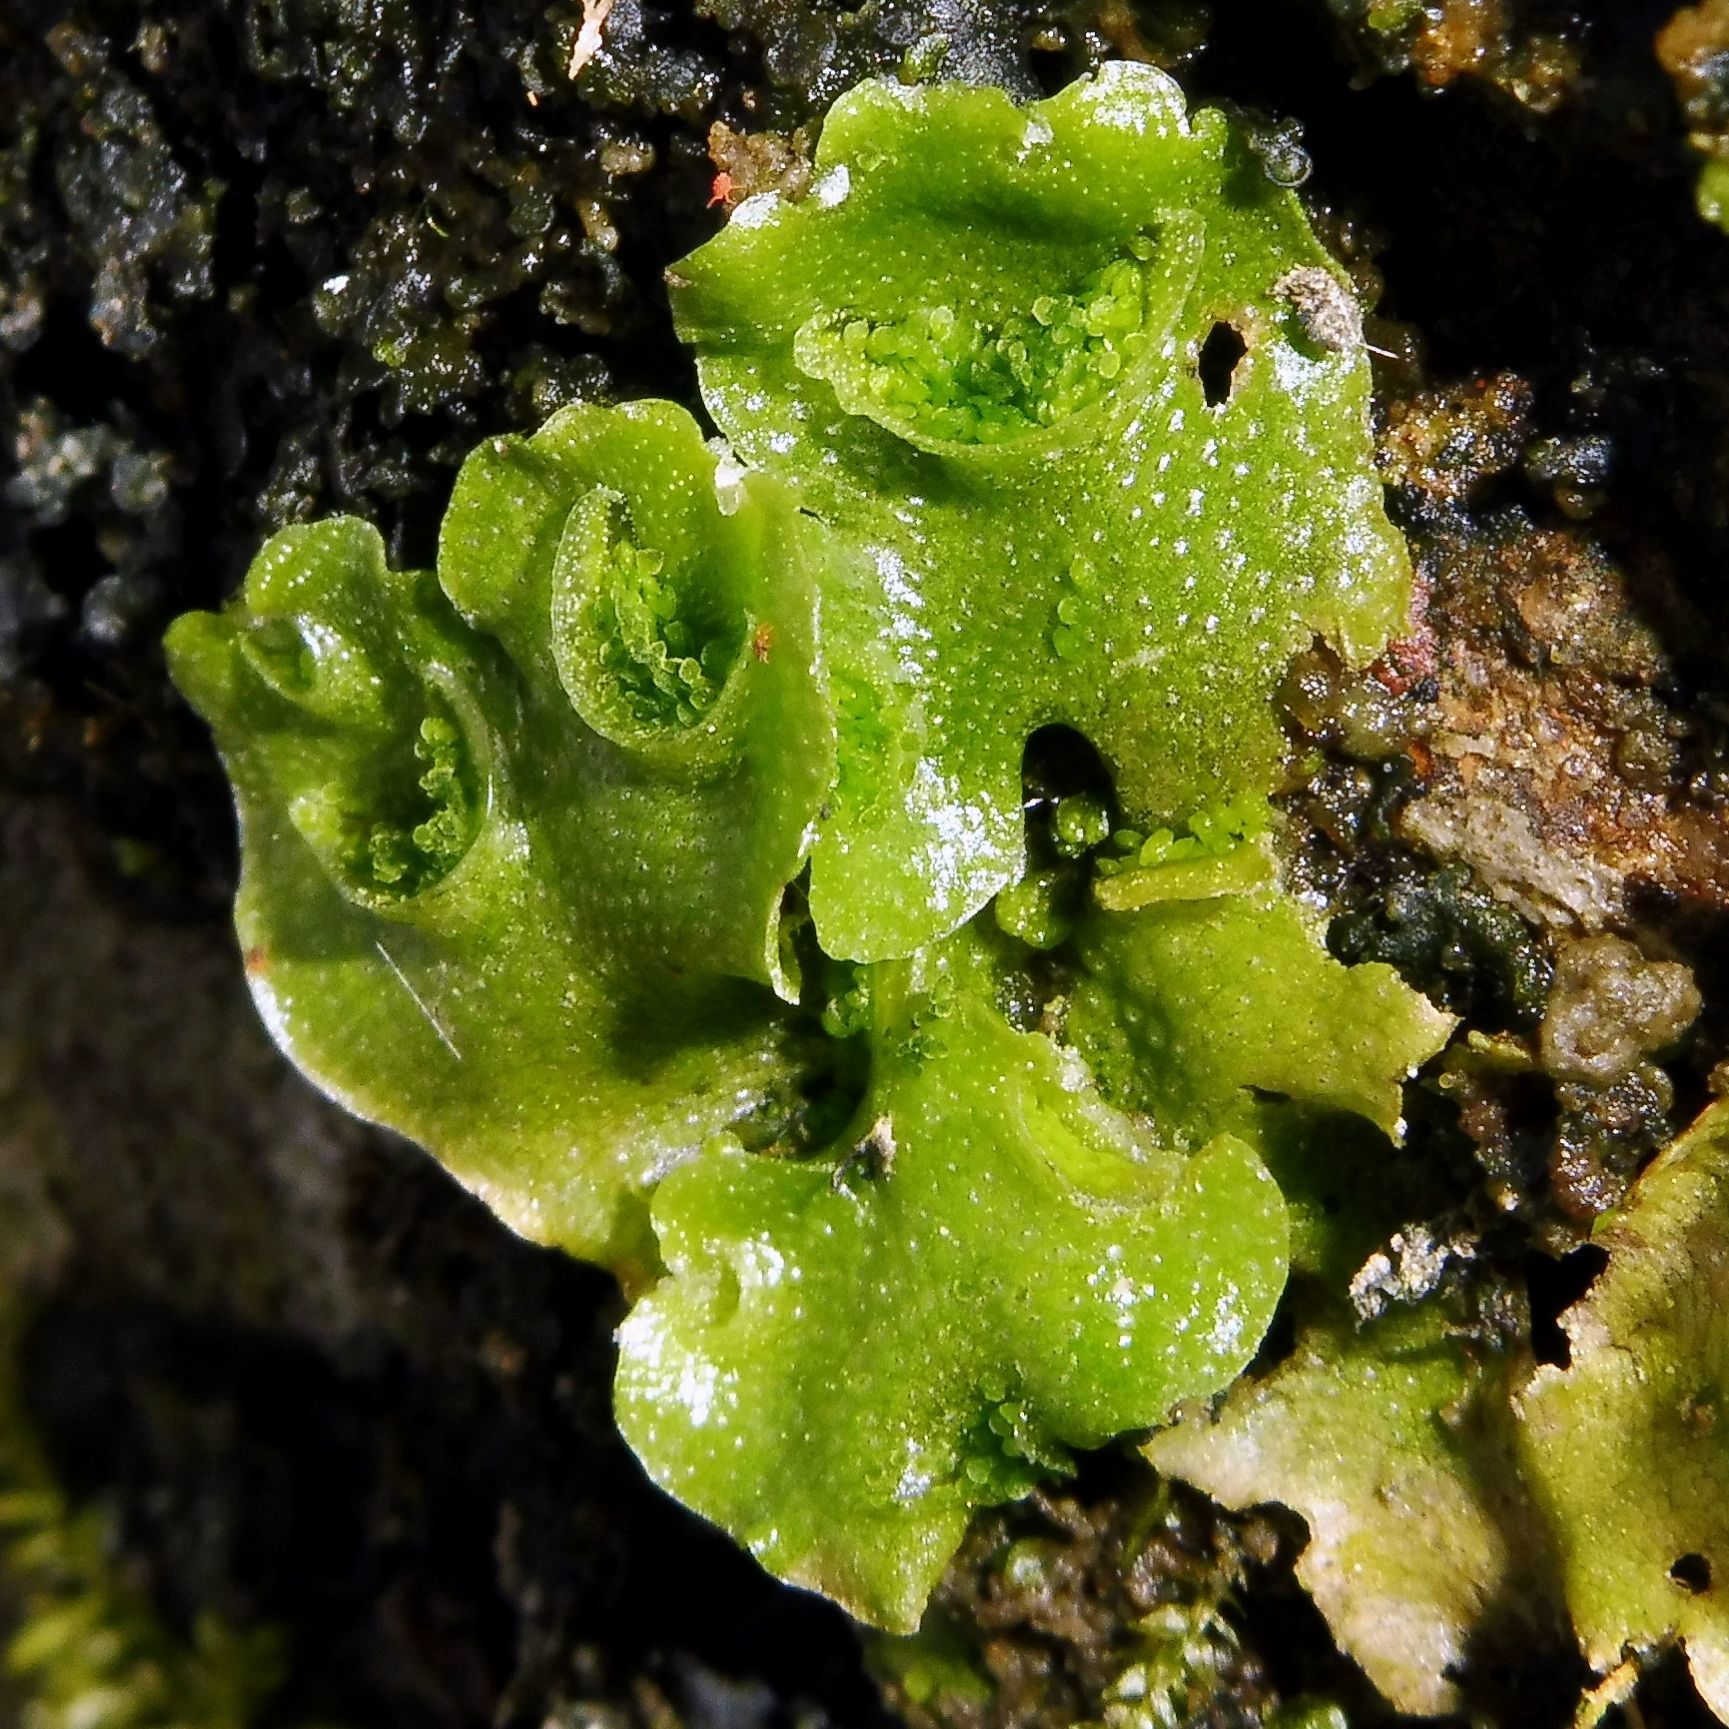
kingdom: Plantae
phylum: Marchantiophyta
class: Marchantiopsida
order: Lunulariales
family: Lunulariaceae
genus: Lunularia
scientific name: Lunularia cruciata
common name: Crescent-cup liverwort
